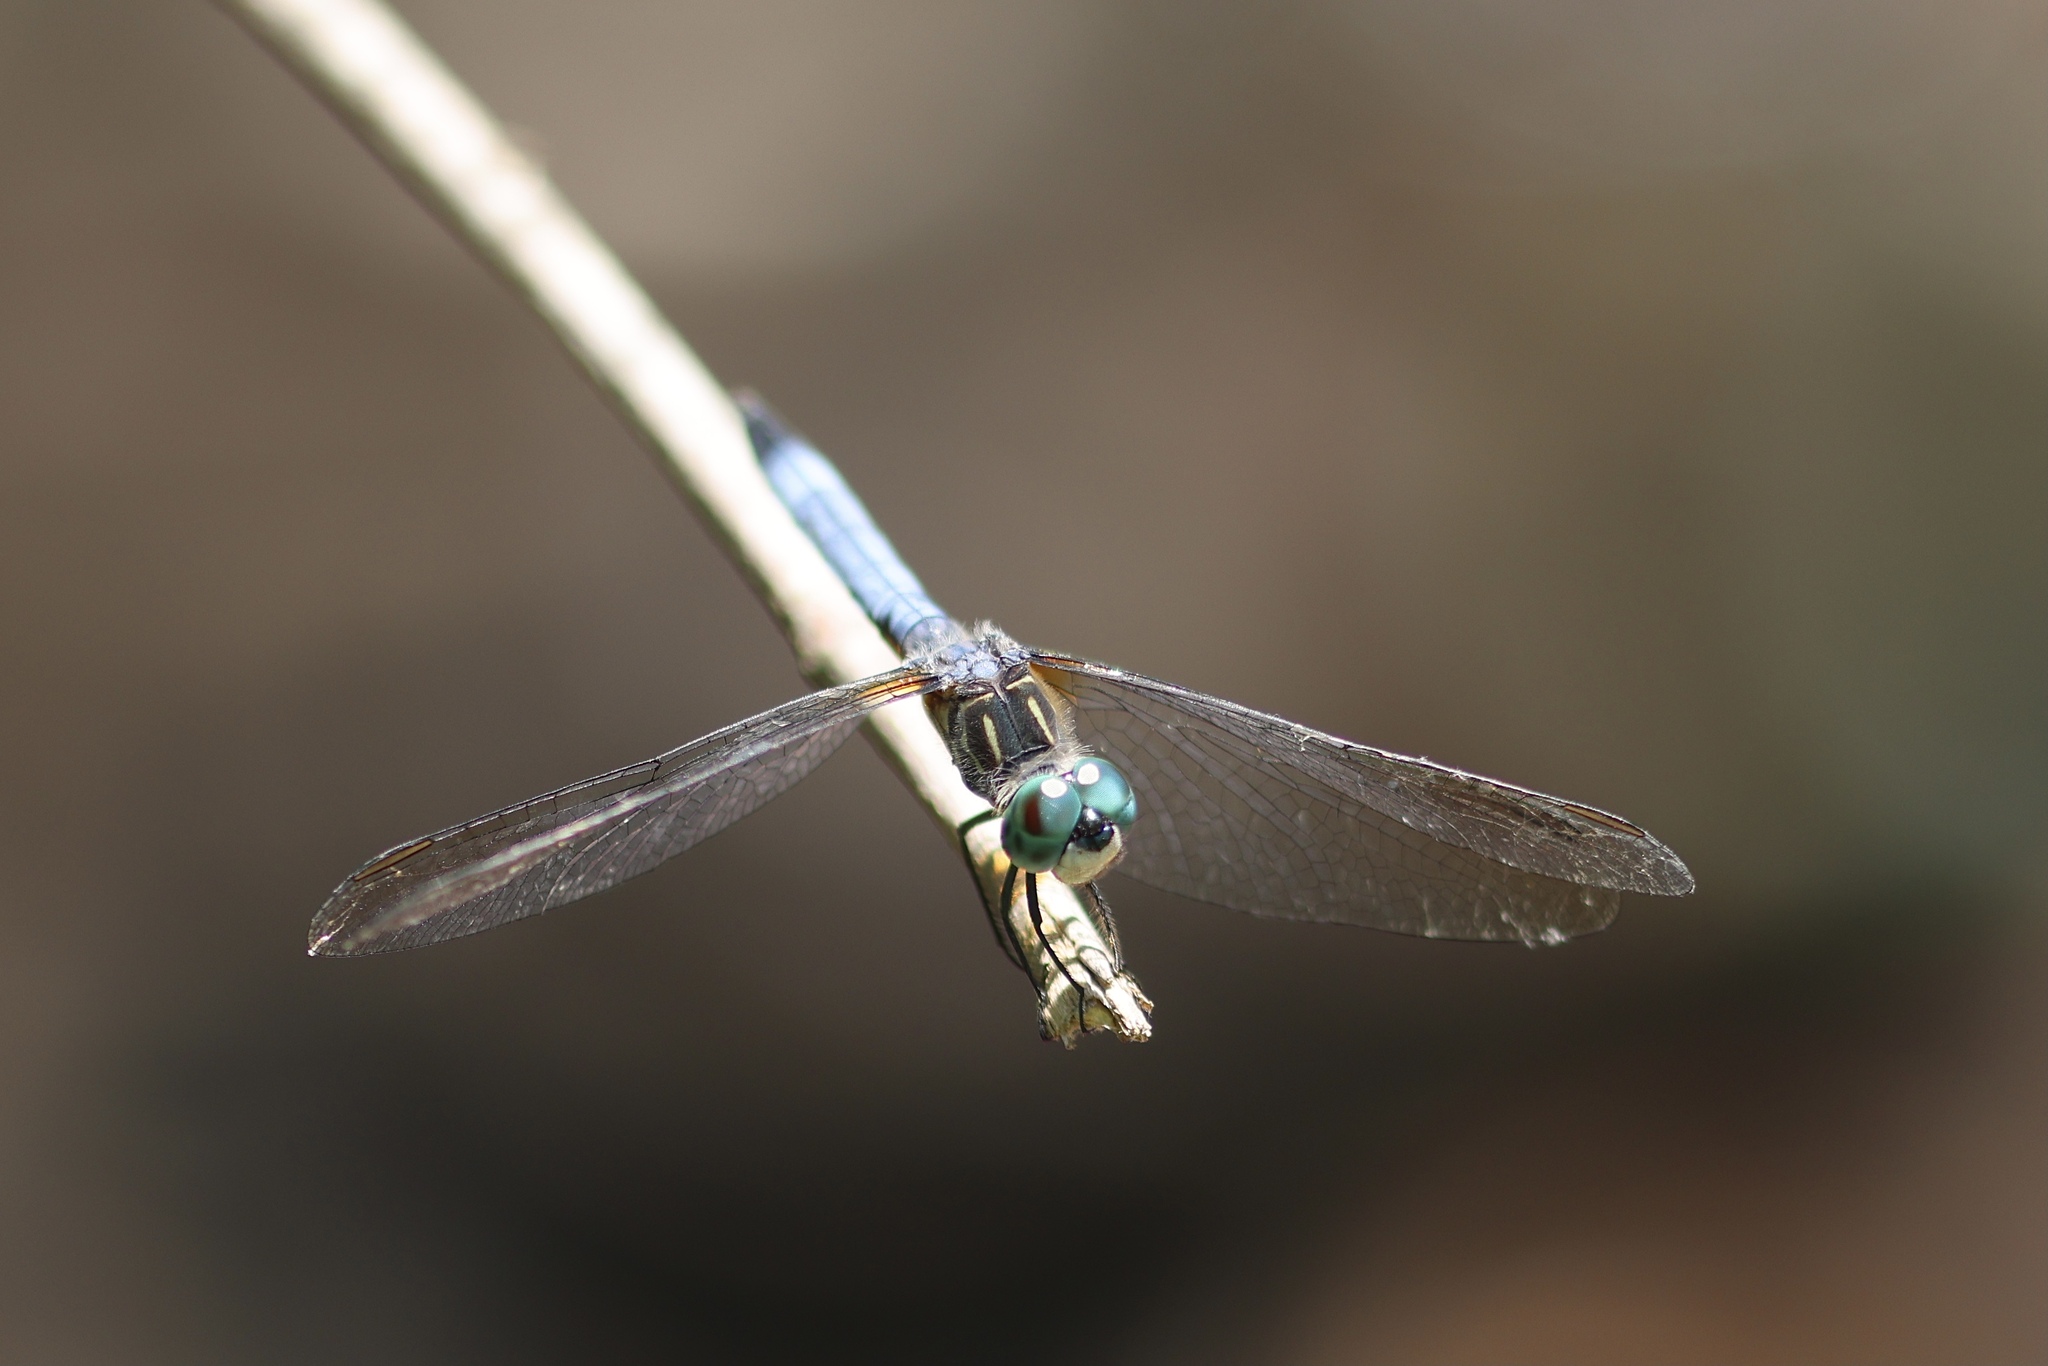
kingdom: Animalia
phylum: Arthropoda
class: Insecta
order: Odonata
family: Libellulidae
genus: Pachydiplax
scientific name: Pachydiplax longipennis
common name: Blue dasher
